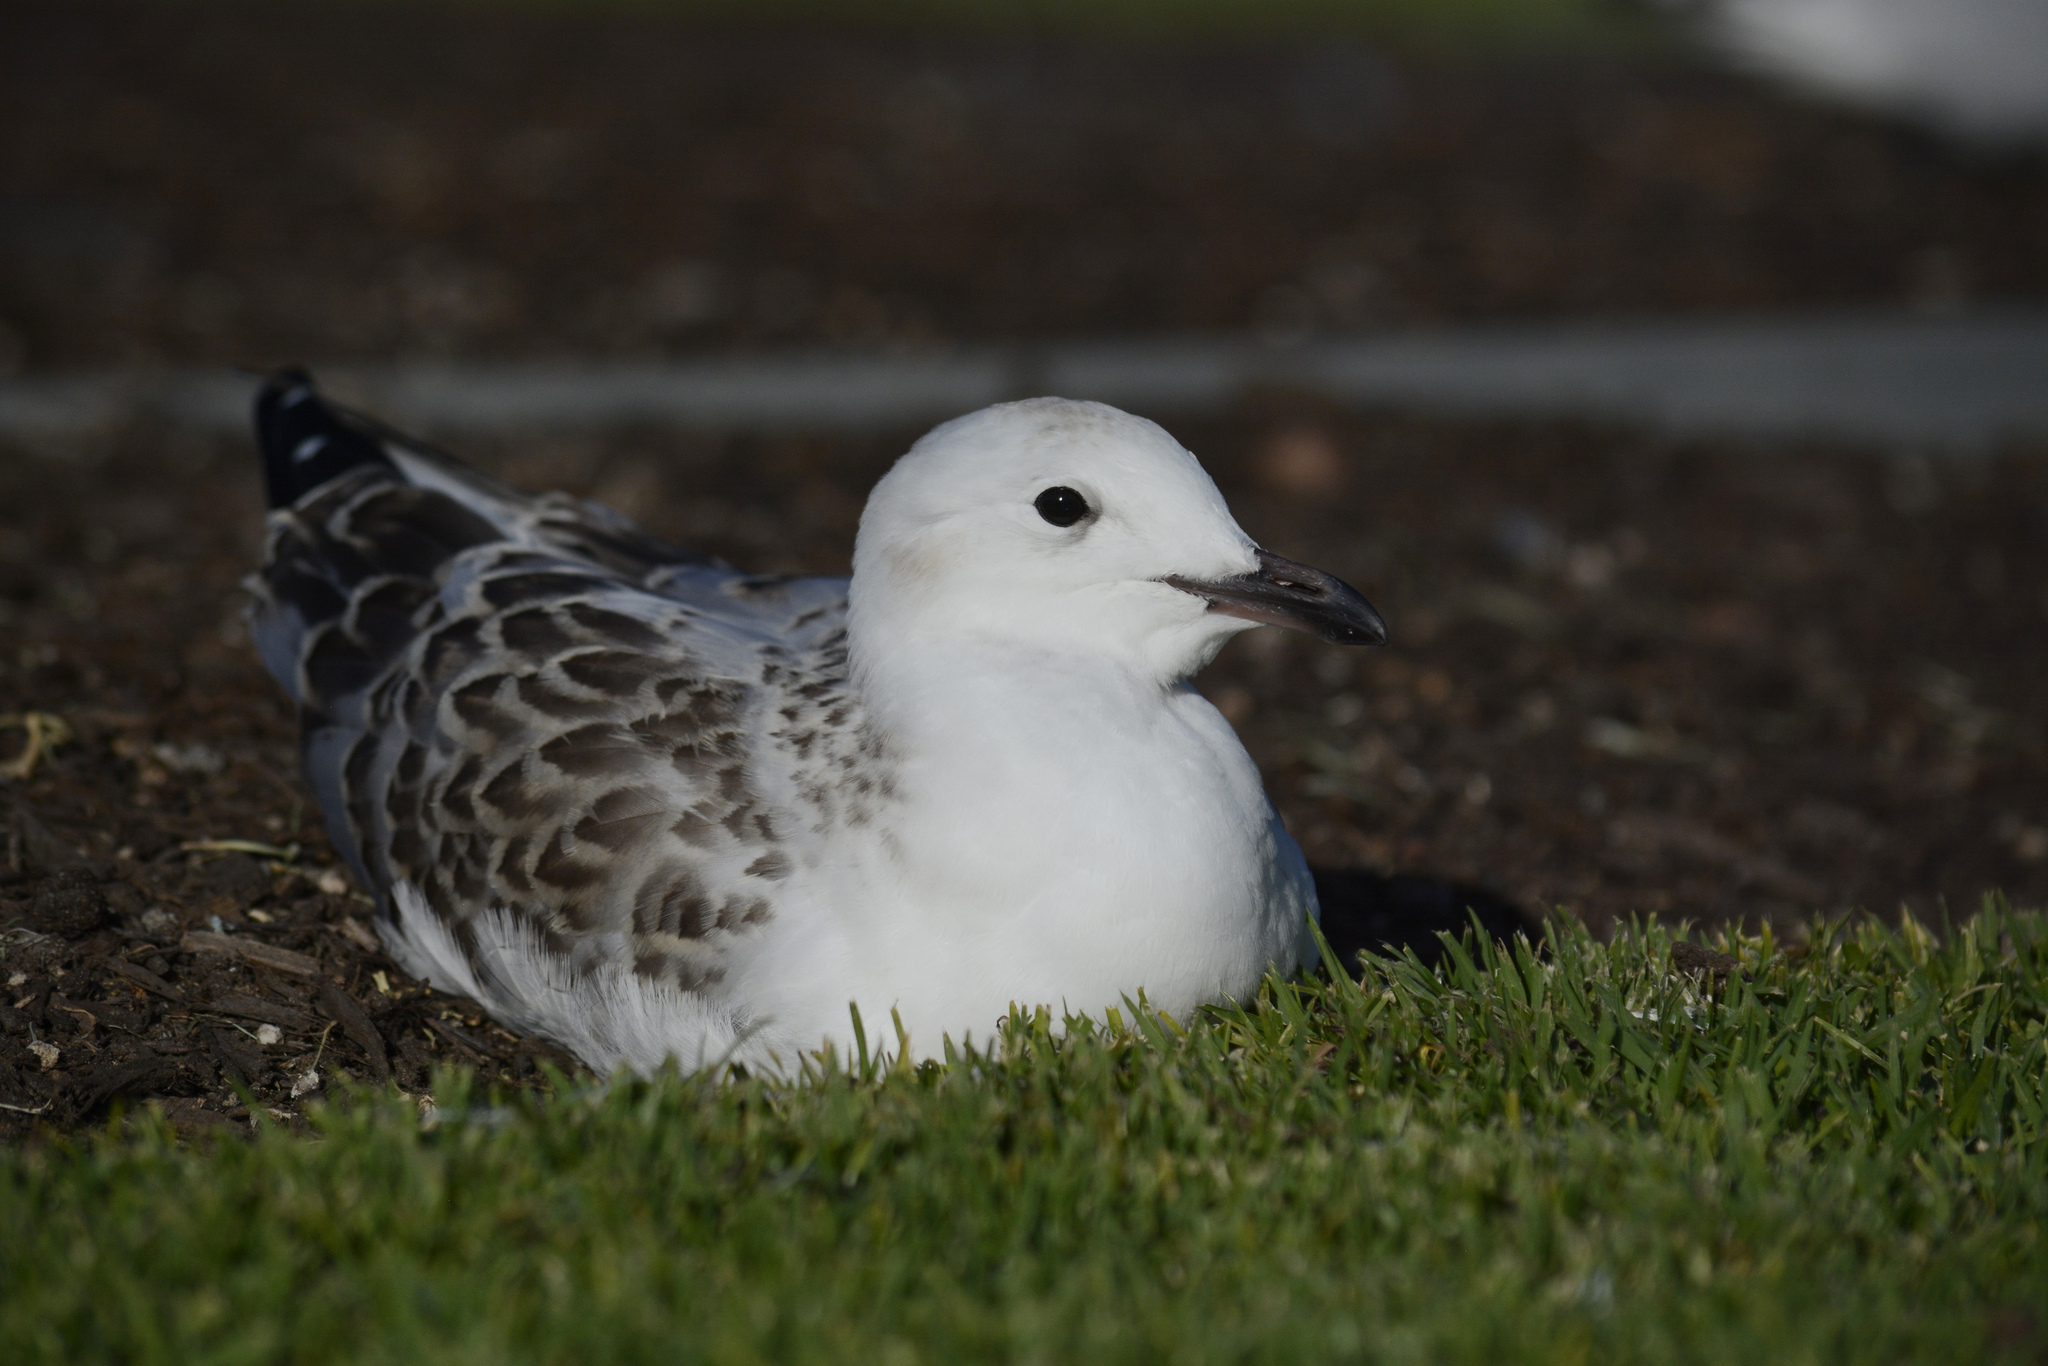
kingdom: Animalia
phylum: Chordata
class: Aves
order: Charadriiformes
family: Laridae
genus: Chroicocephalus
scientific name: Chroicocephalus novaehollandiae
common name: Silver gull
